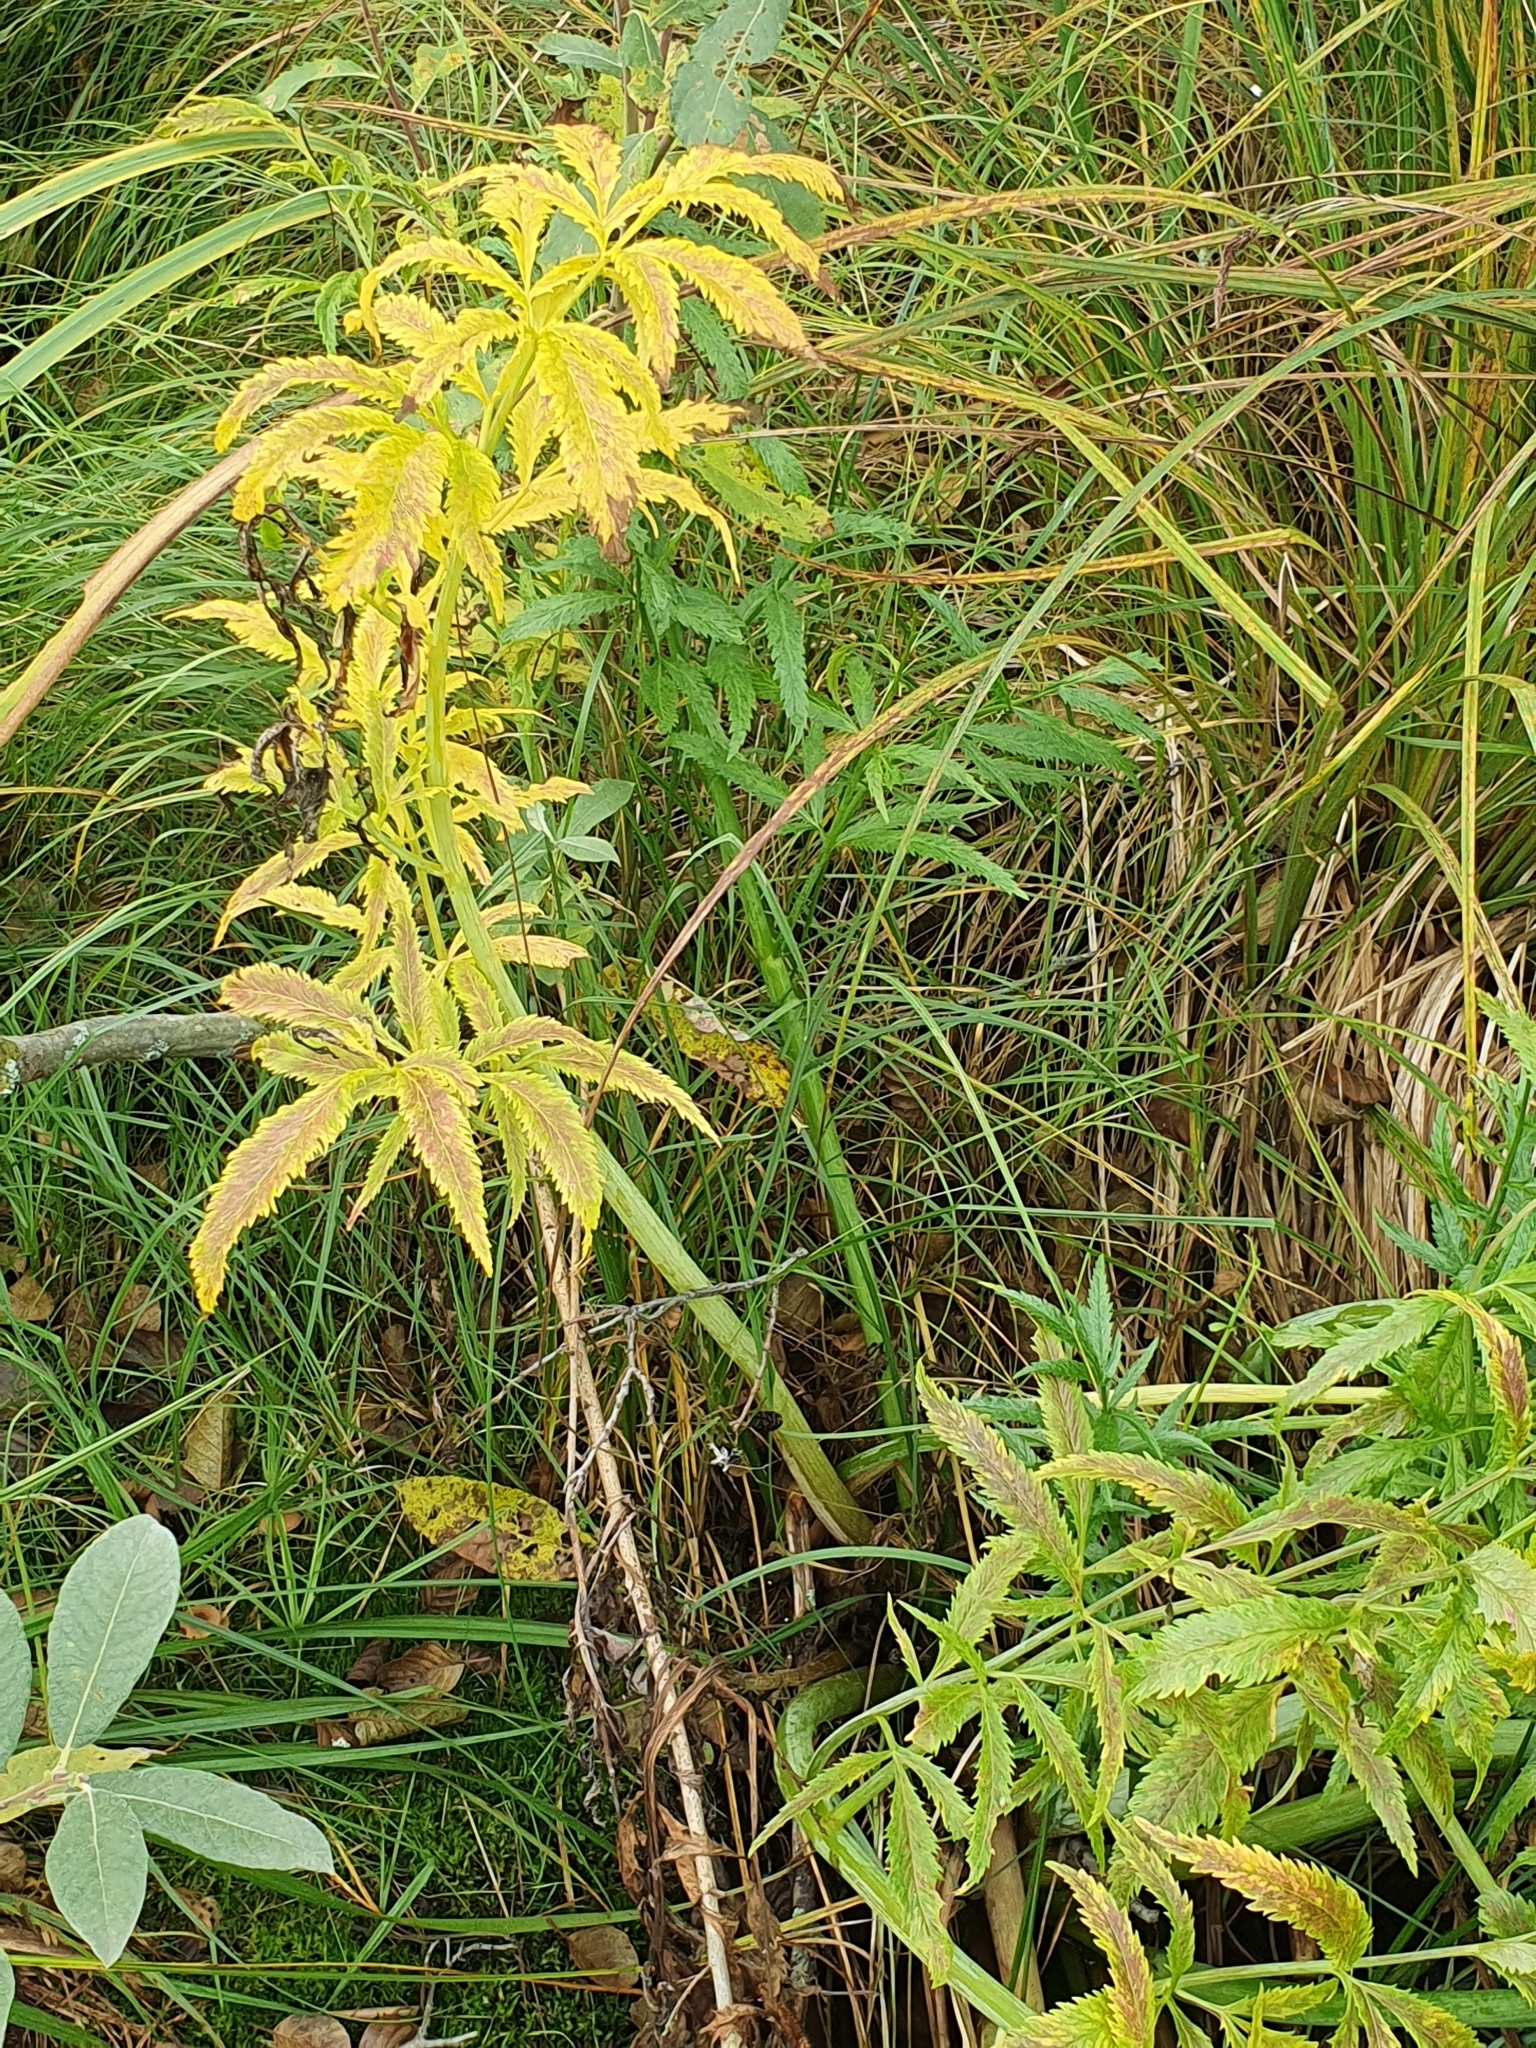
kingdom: Plantae
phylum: Tracheophyta
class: Magnoliopsida
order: Apiales
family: Apiaceae
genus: Cicuta
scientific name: Cicuta virosa
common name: Cowbane
